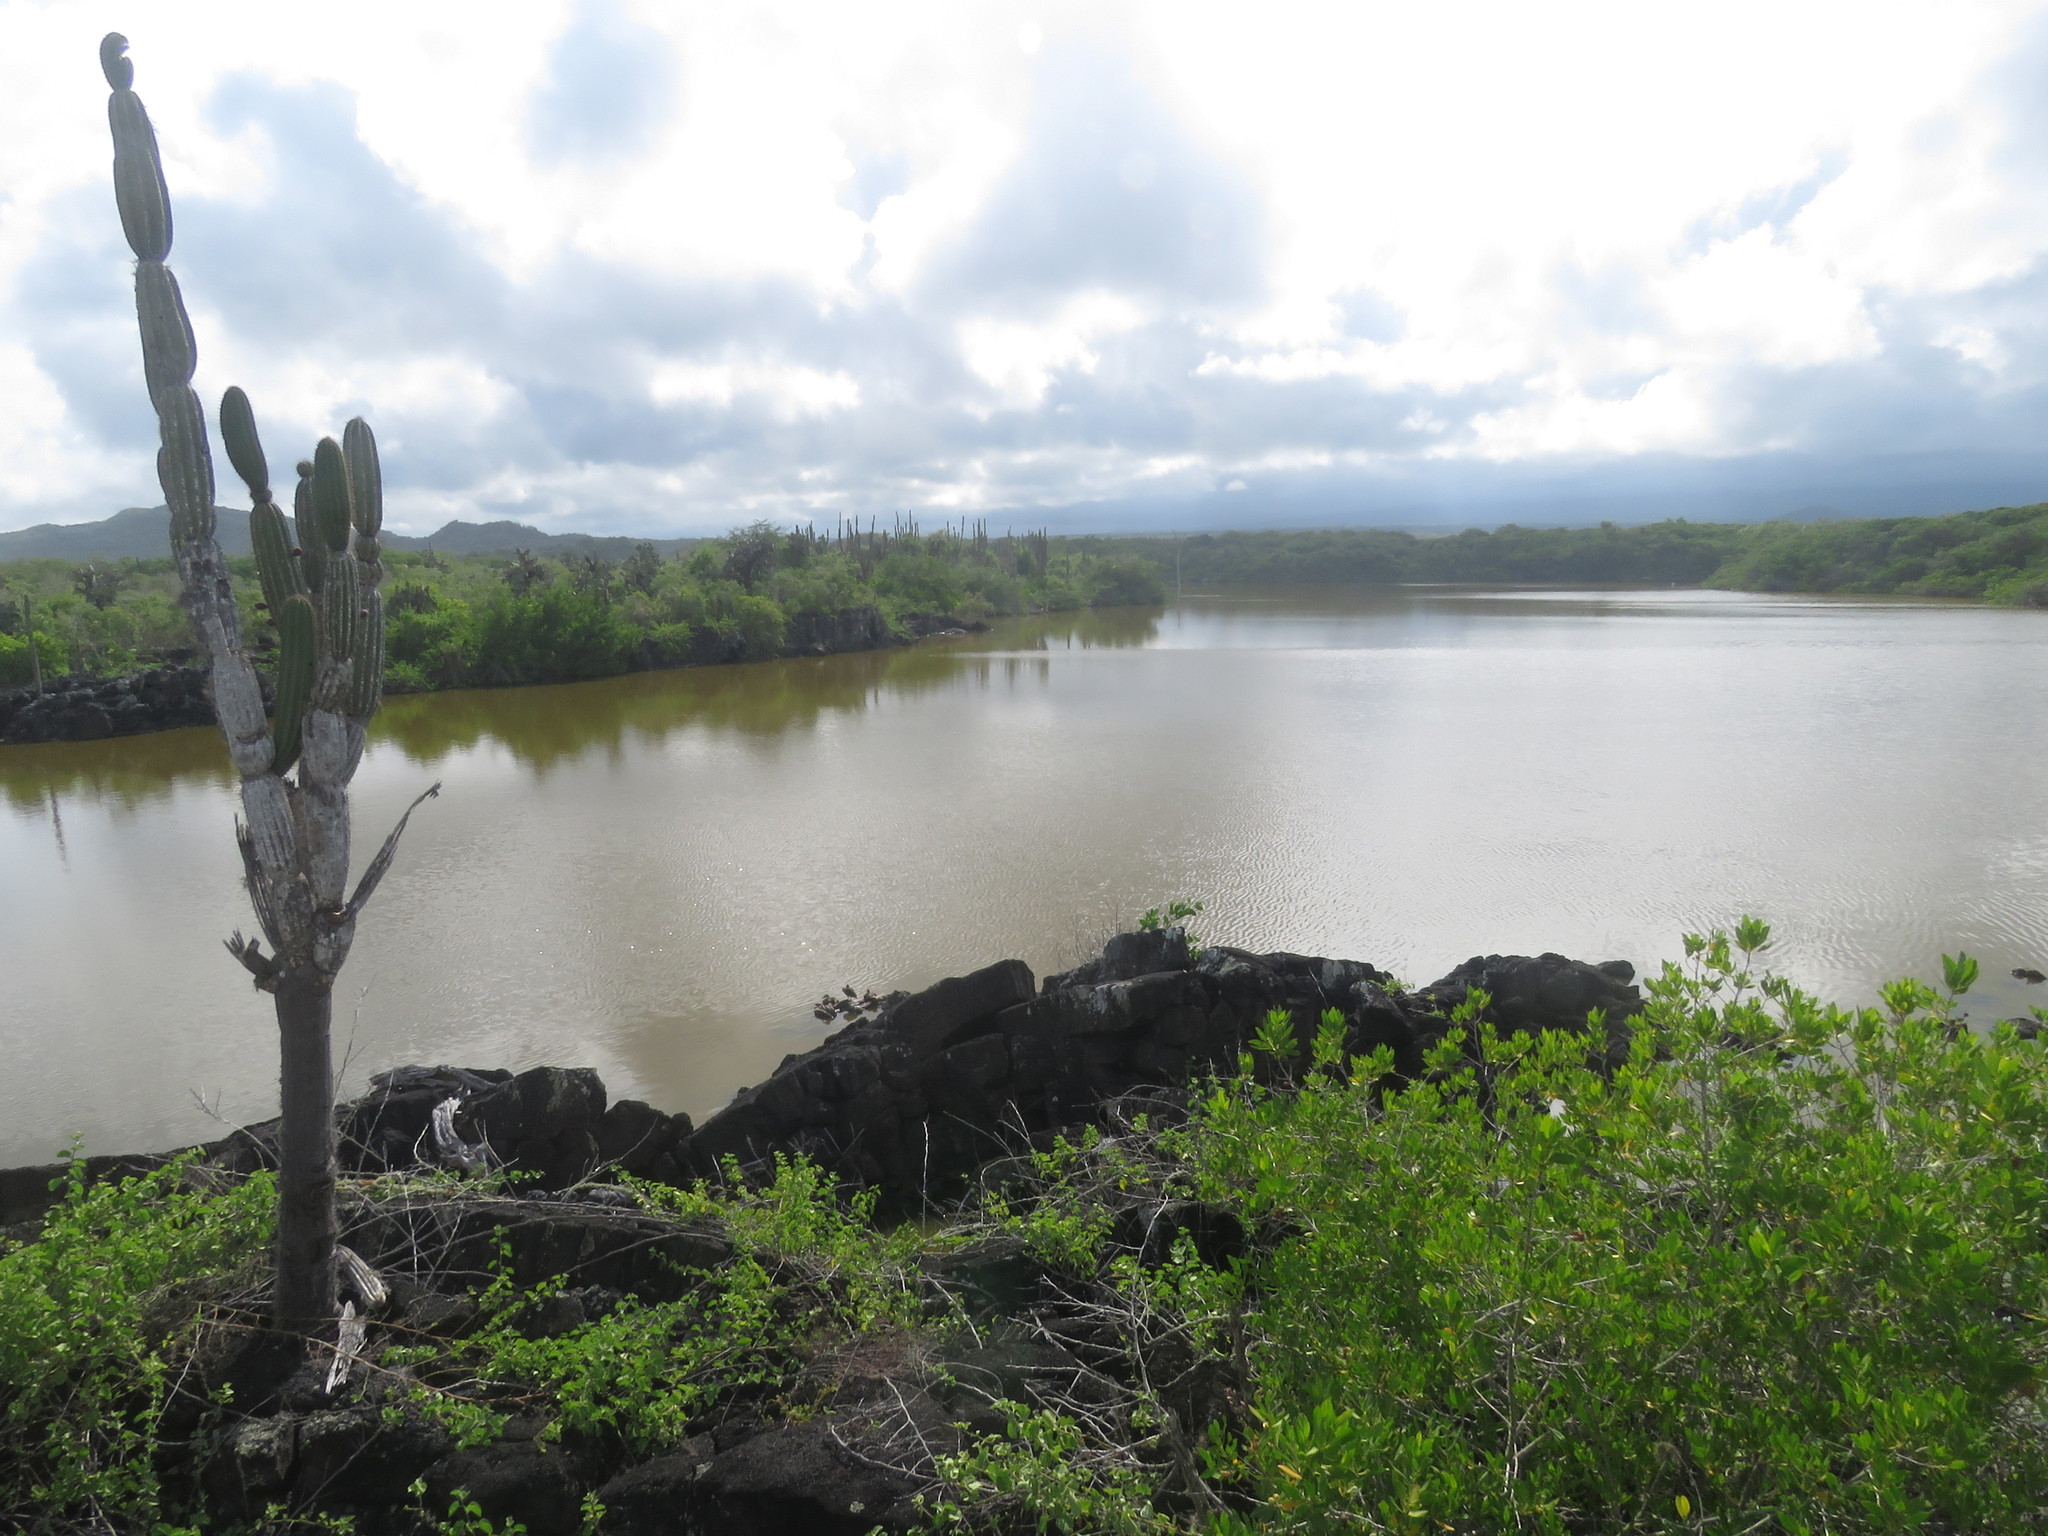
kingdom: Plantae
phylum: Tracheophyta
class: Magnoliopsida
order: Caryophyllales
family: Cactaceae
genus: Jasminocereus
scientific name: Jasminocereus thouarsii
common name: Candelabra cactus
